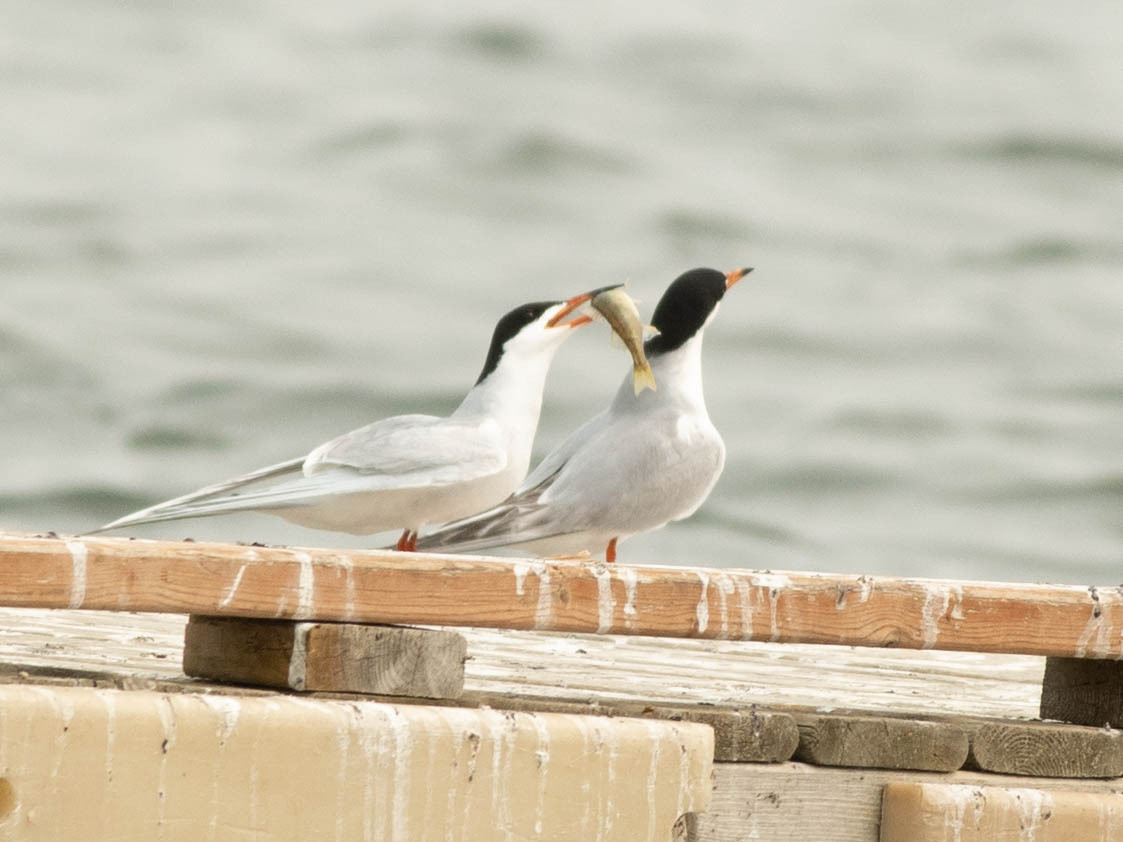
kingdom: Animalia
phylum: Chordata
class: Aves
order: Charadriiformes
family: Laridae
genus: Sterna
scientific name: Sterna hirundo
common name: Common tern
